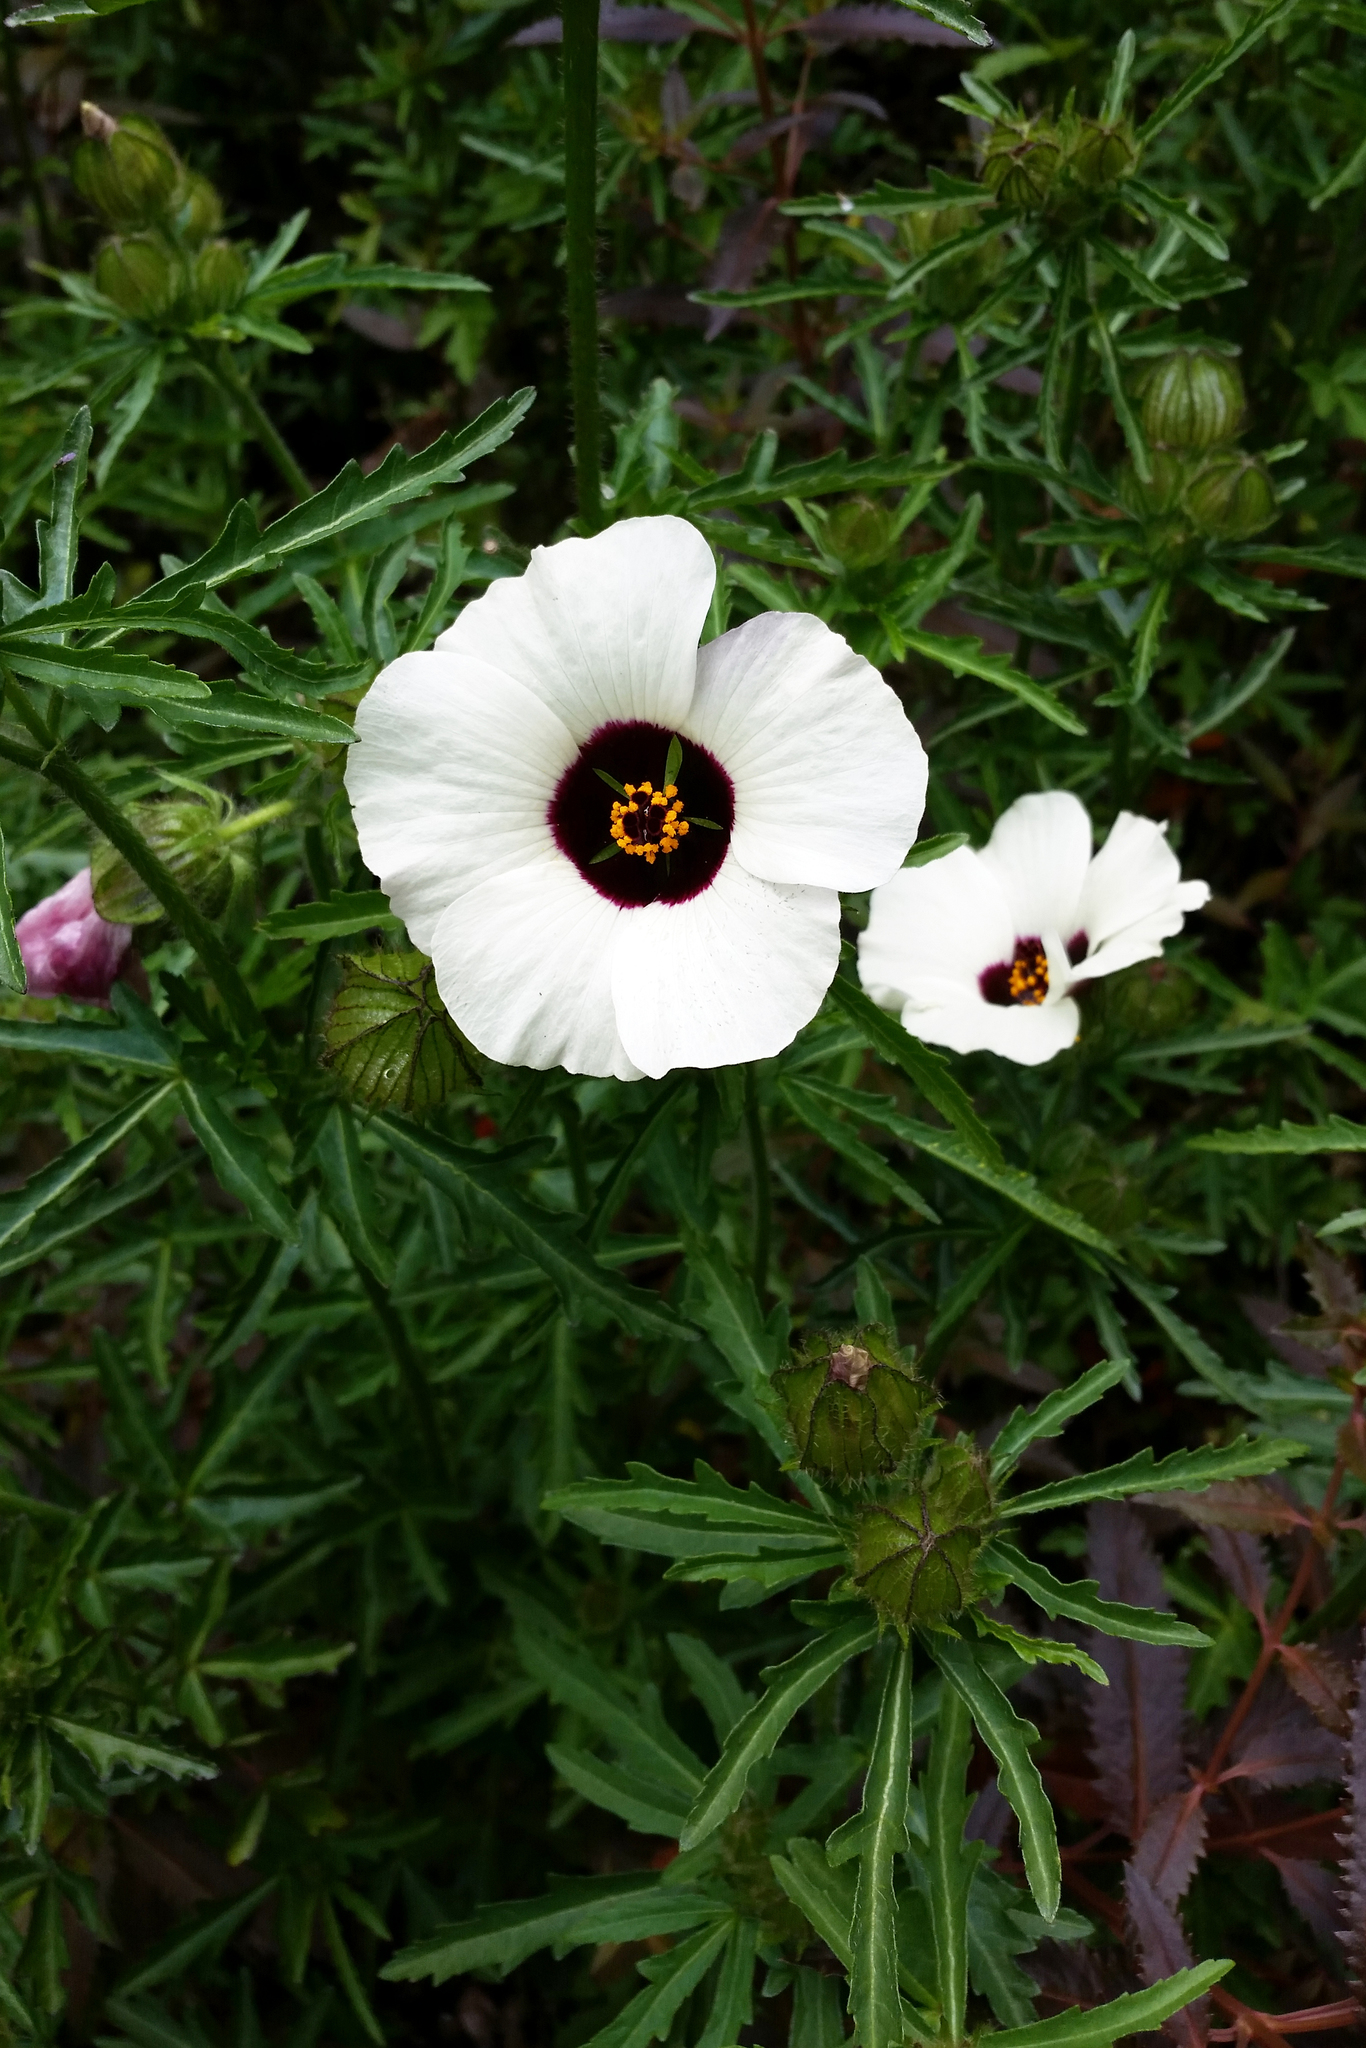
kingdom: Plantae
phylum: Tracheophyta
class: Magnoliopsida
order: Malvales
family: Malvaceae
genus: Hibiscus
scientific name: Hibiscus trionum
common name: Bladder ketmia
